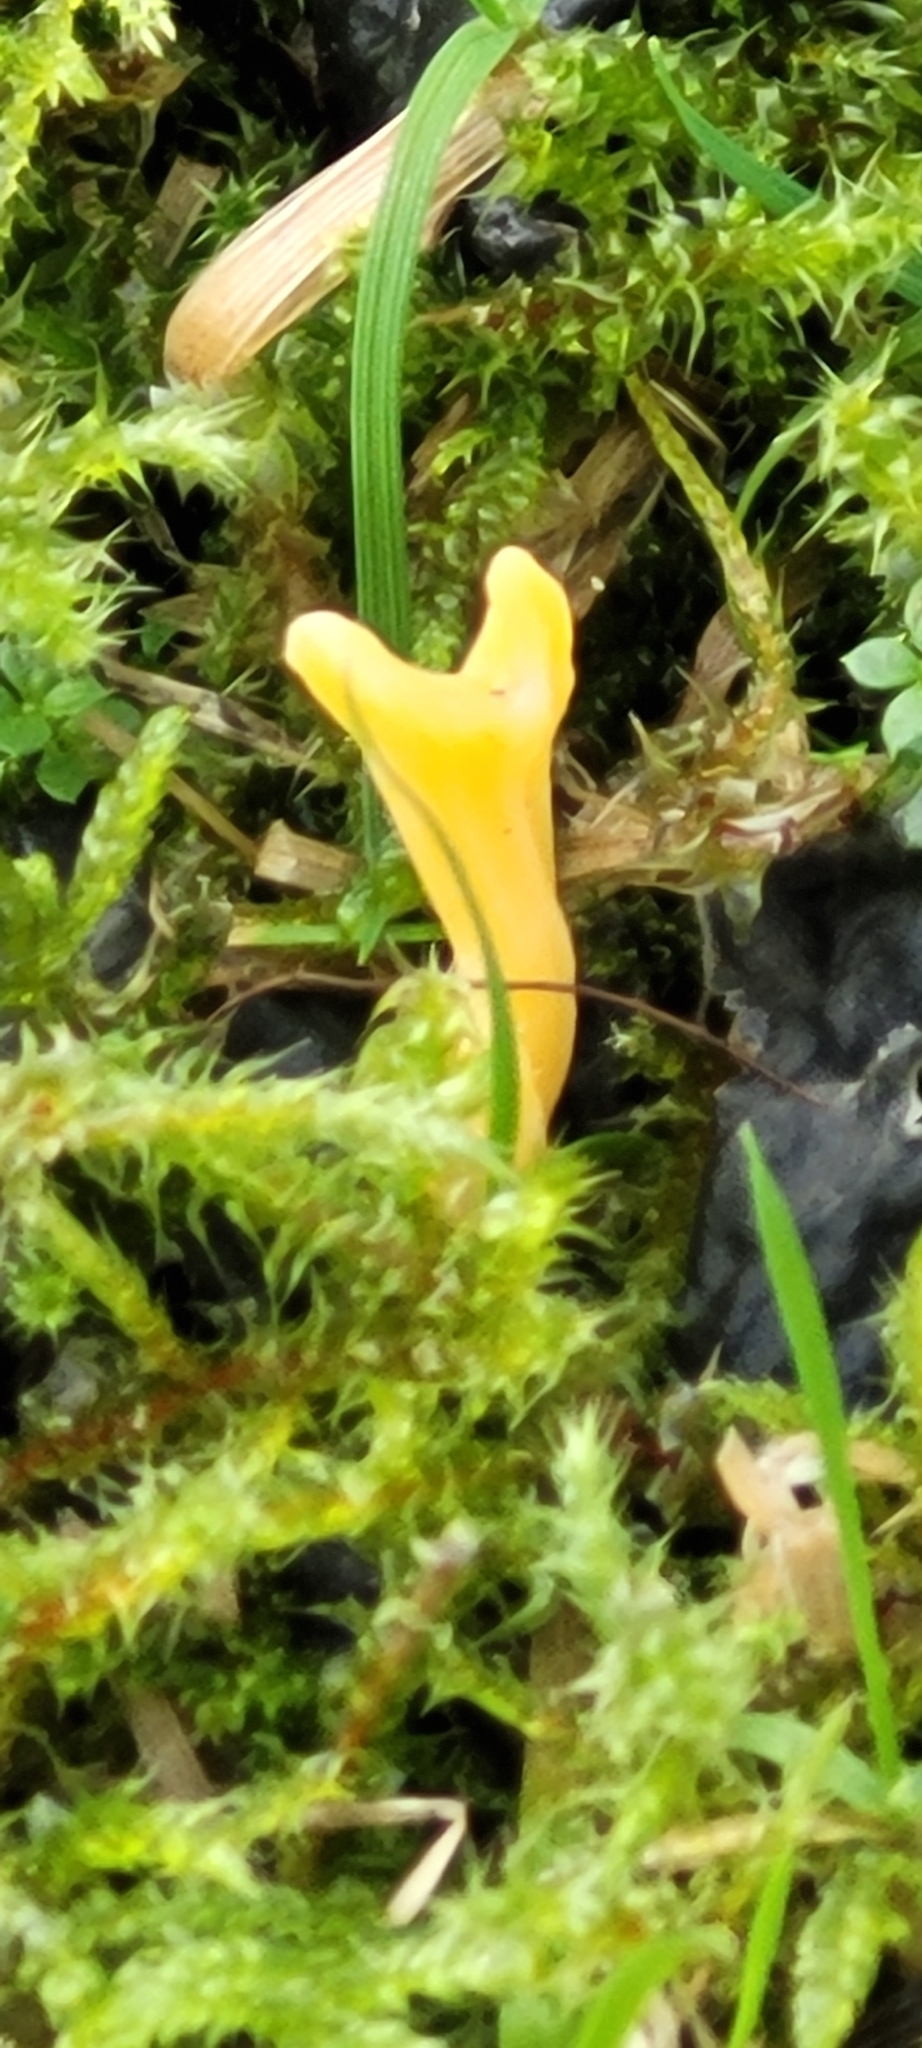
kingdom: Fungi
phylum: Basidiomycota
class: Agaricomycetes
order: Agaricales
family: Clavariaceae
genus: Clavulinopsis
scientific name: Clavulinopsis helvola
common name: Yellow club
